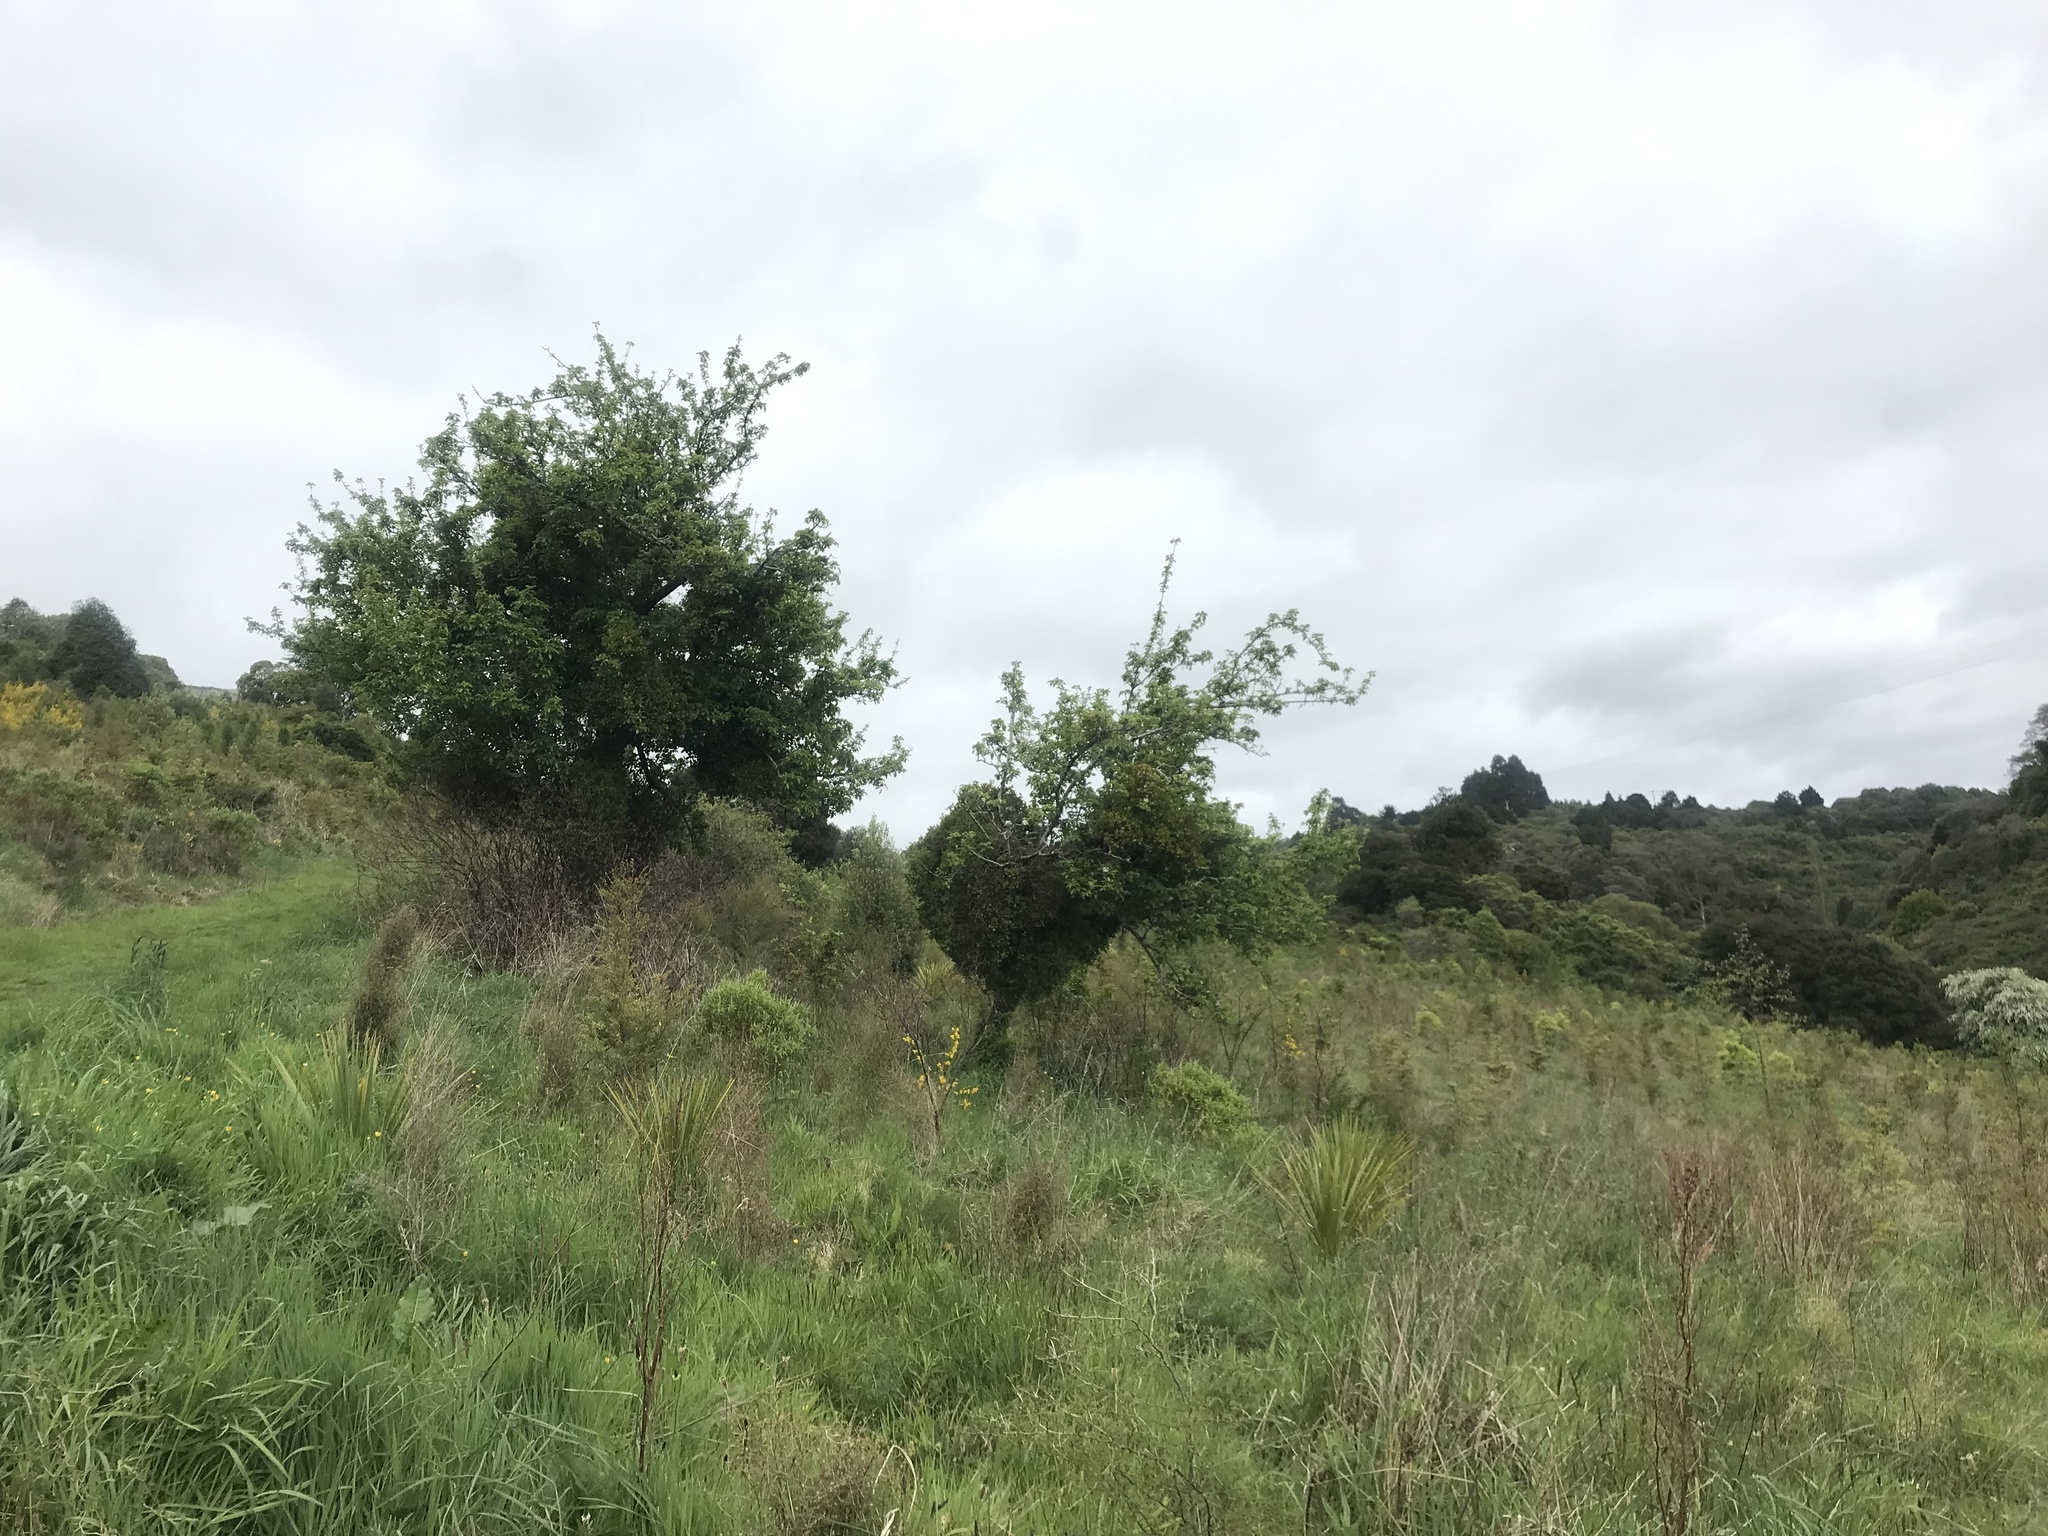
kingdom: Plantae
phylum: Tracheophyta
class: Magnoliopsida
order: Santalales
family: Loranthaceae
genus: Ileostylus
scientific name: Ileostylus micranthus
